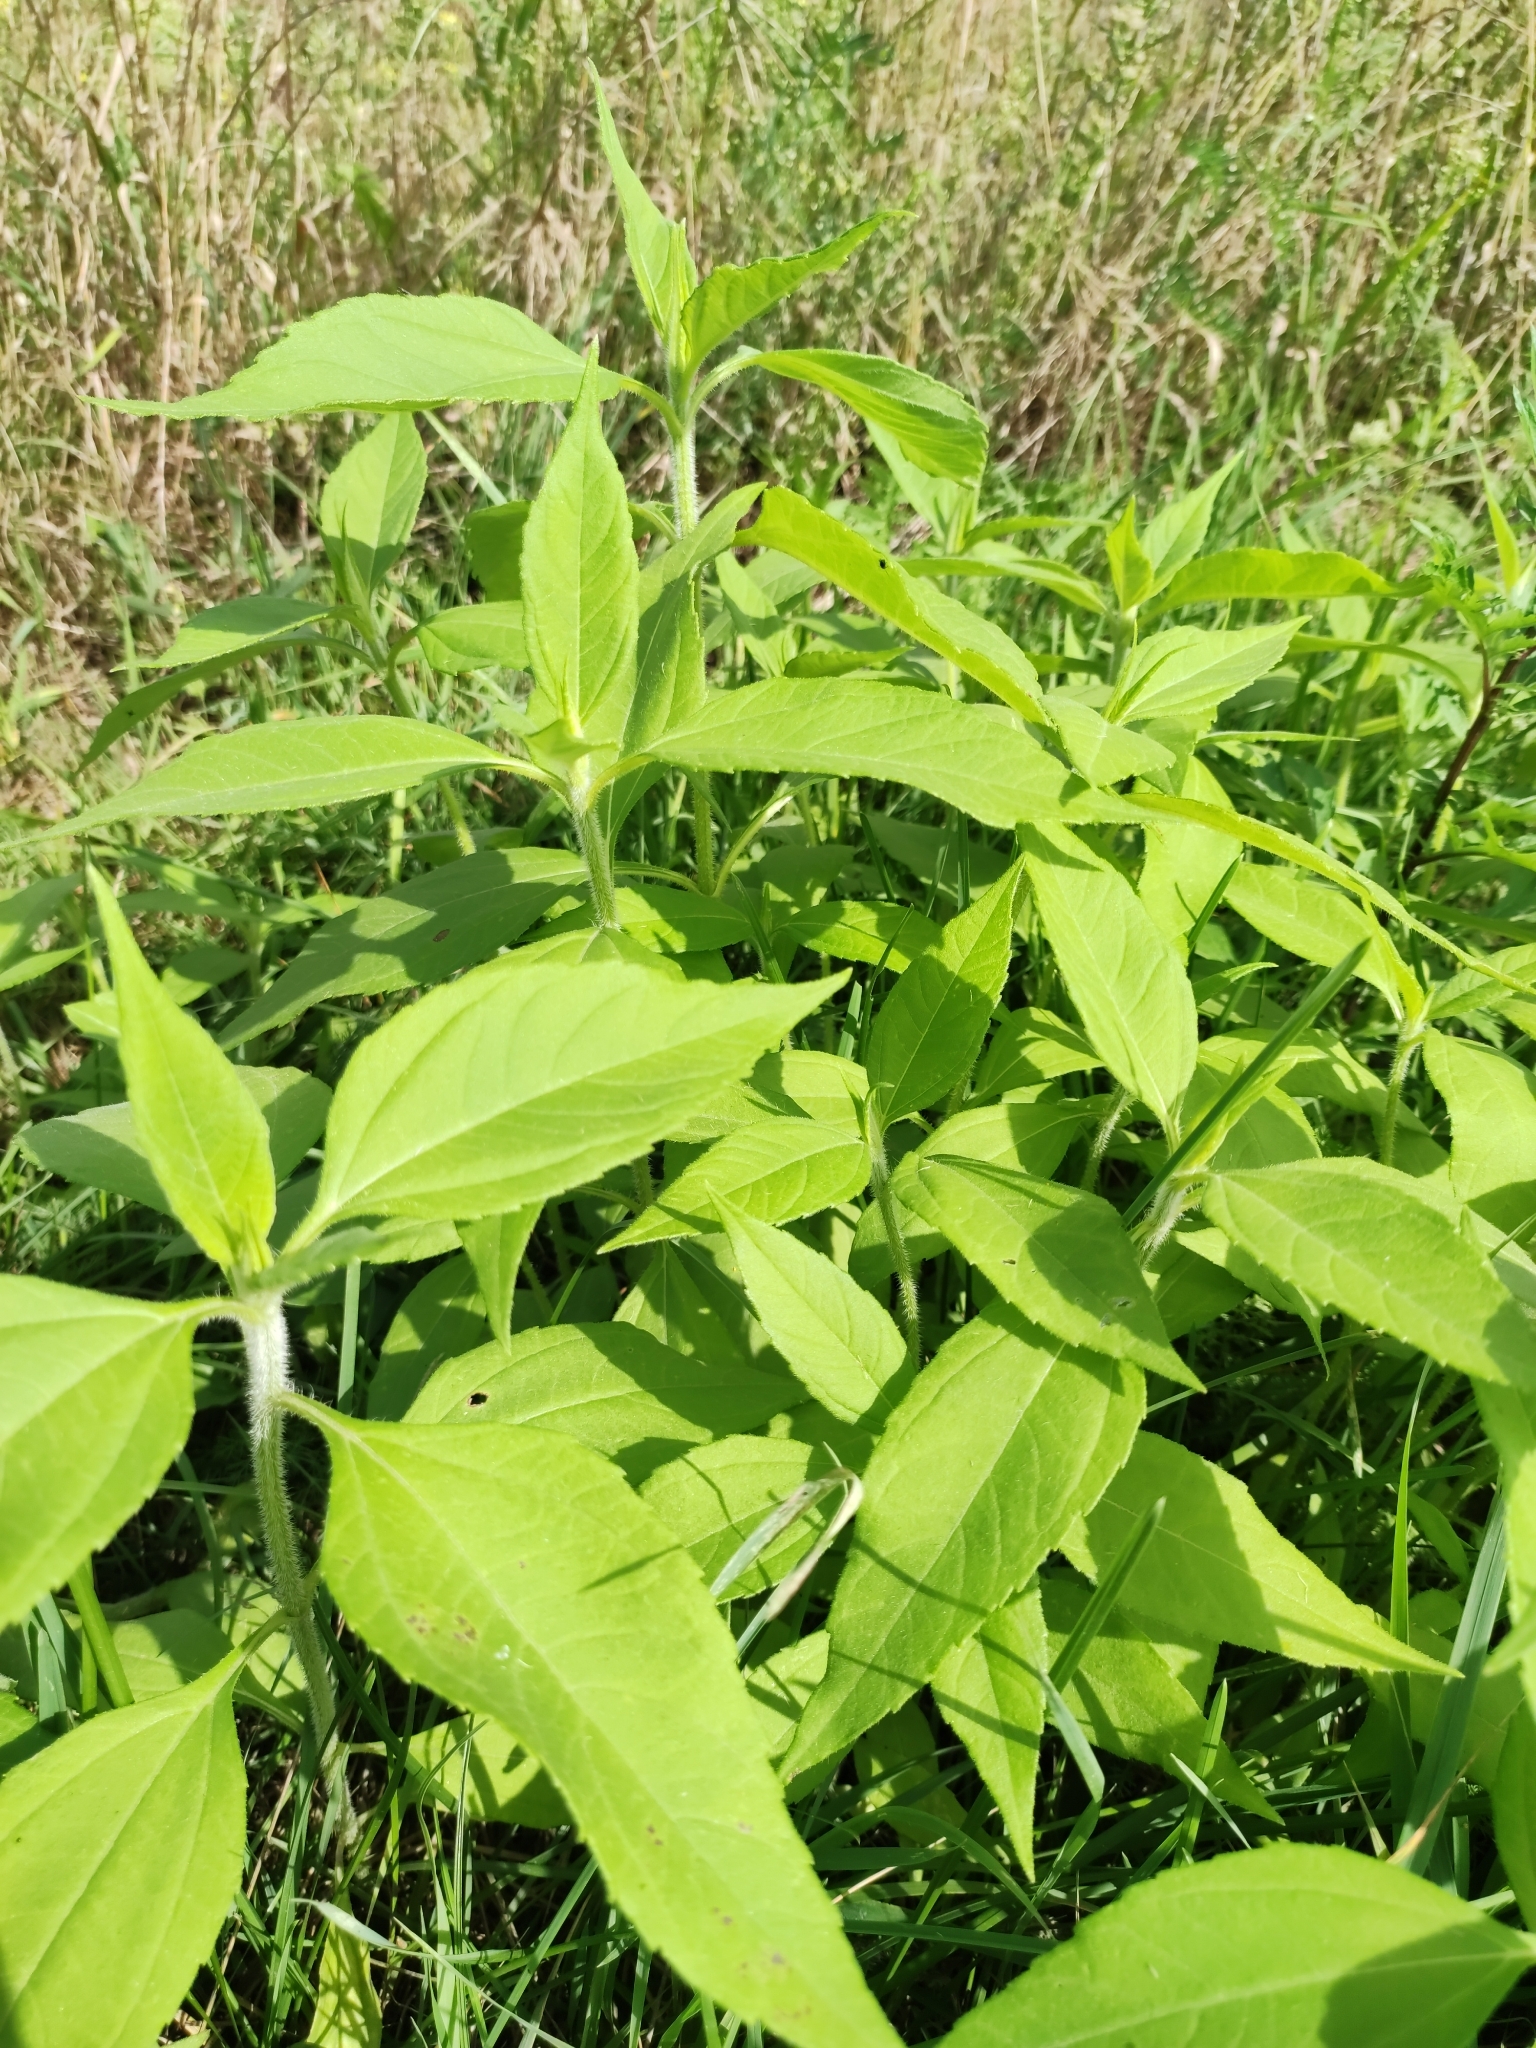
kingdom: Plantae
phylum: Tracheophyta
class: Magnoliopsida
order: Asterales
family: Asteraceae
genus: Helianthus
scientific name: Helianthus tuberosus
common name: Jerusalem artichoke
